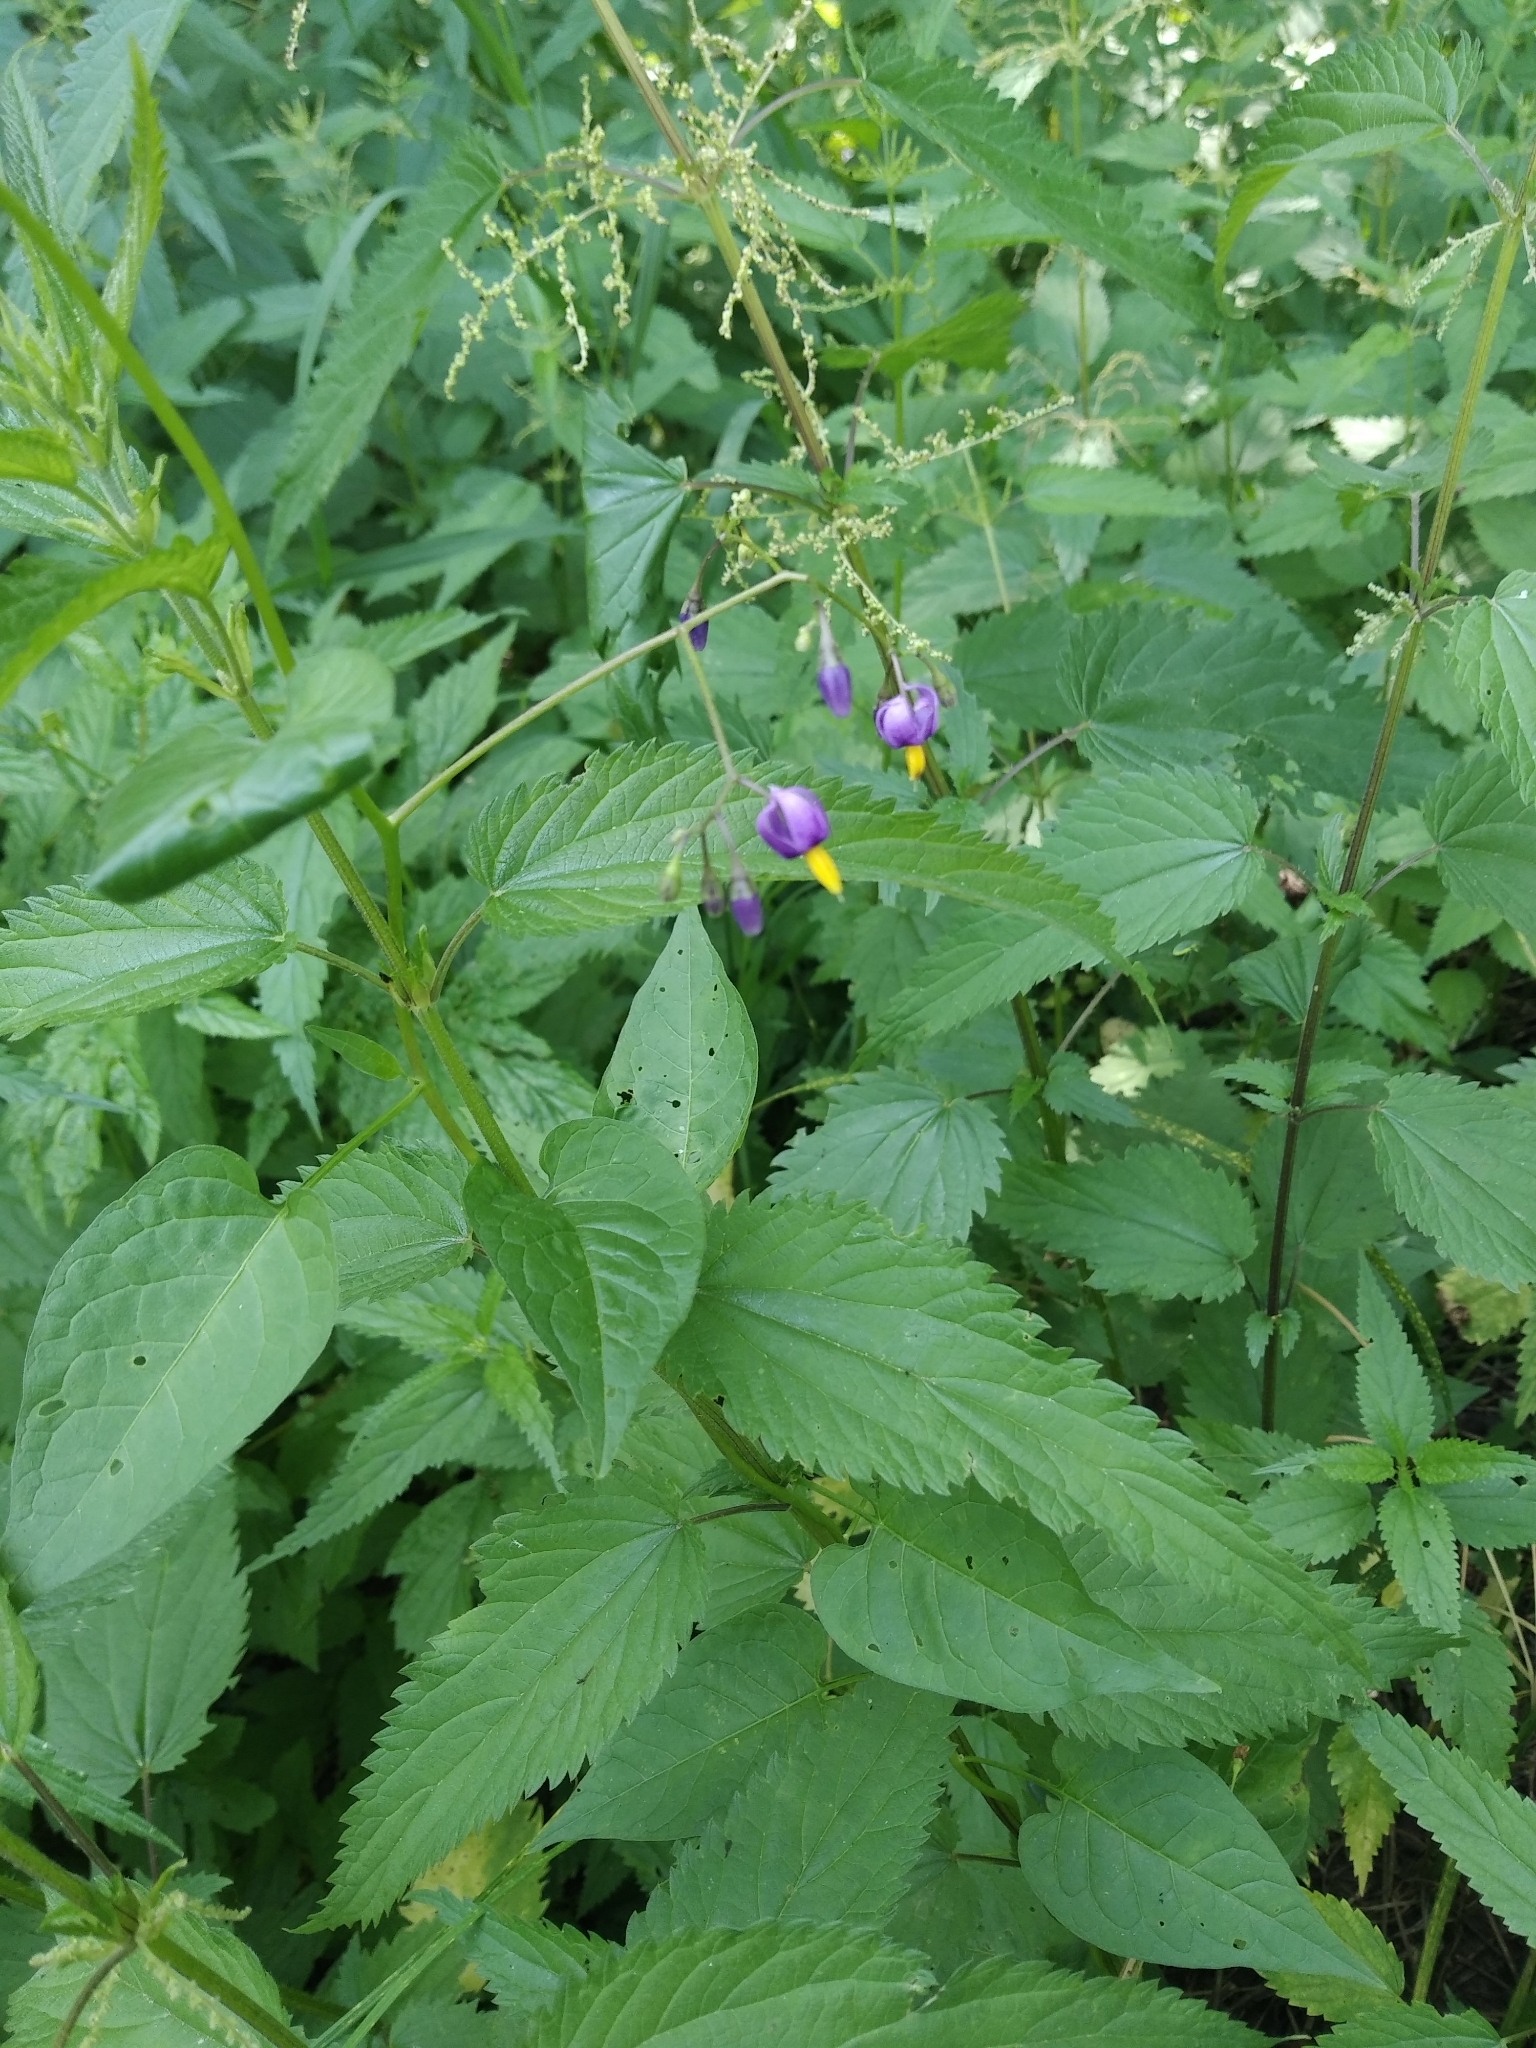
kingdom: Plantae
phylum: Tracheophyta
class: Magnoliopsida
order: Solanales
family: Solanaceae
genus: Solanum
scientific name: Solanum dulcamara
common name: Climbing nightshade
